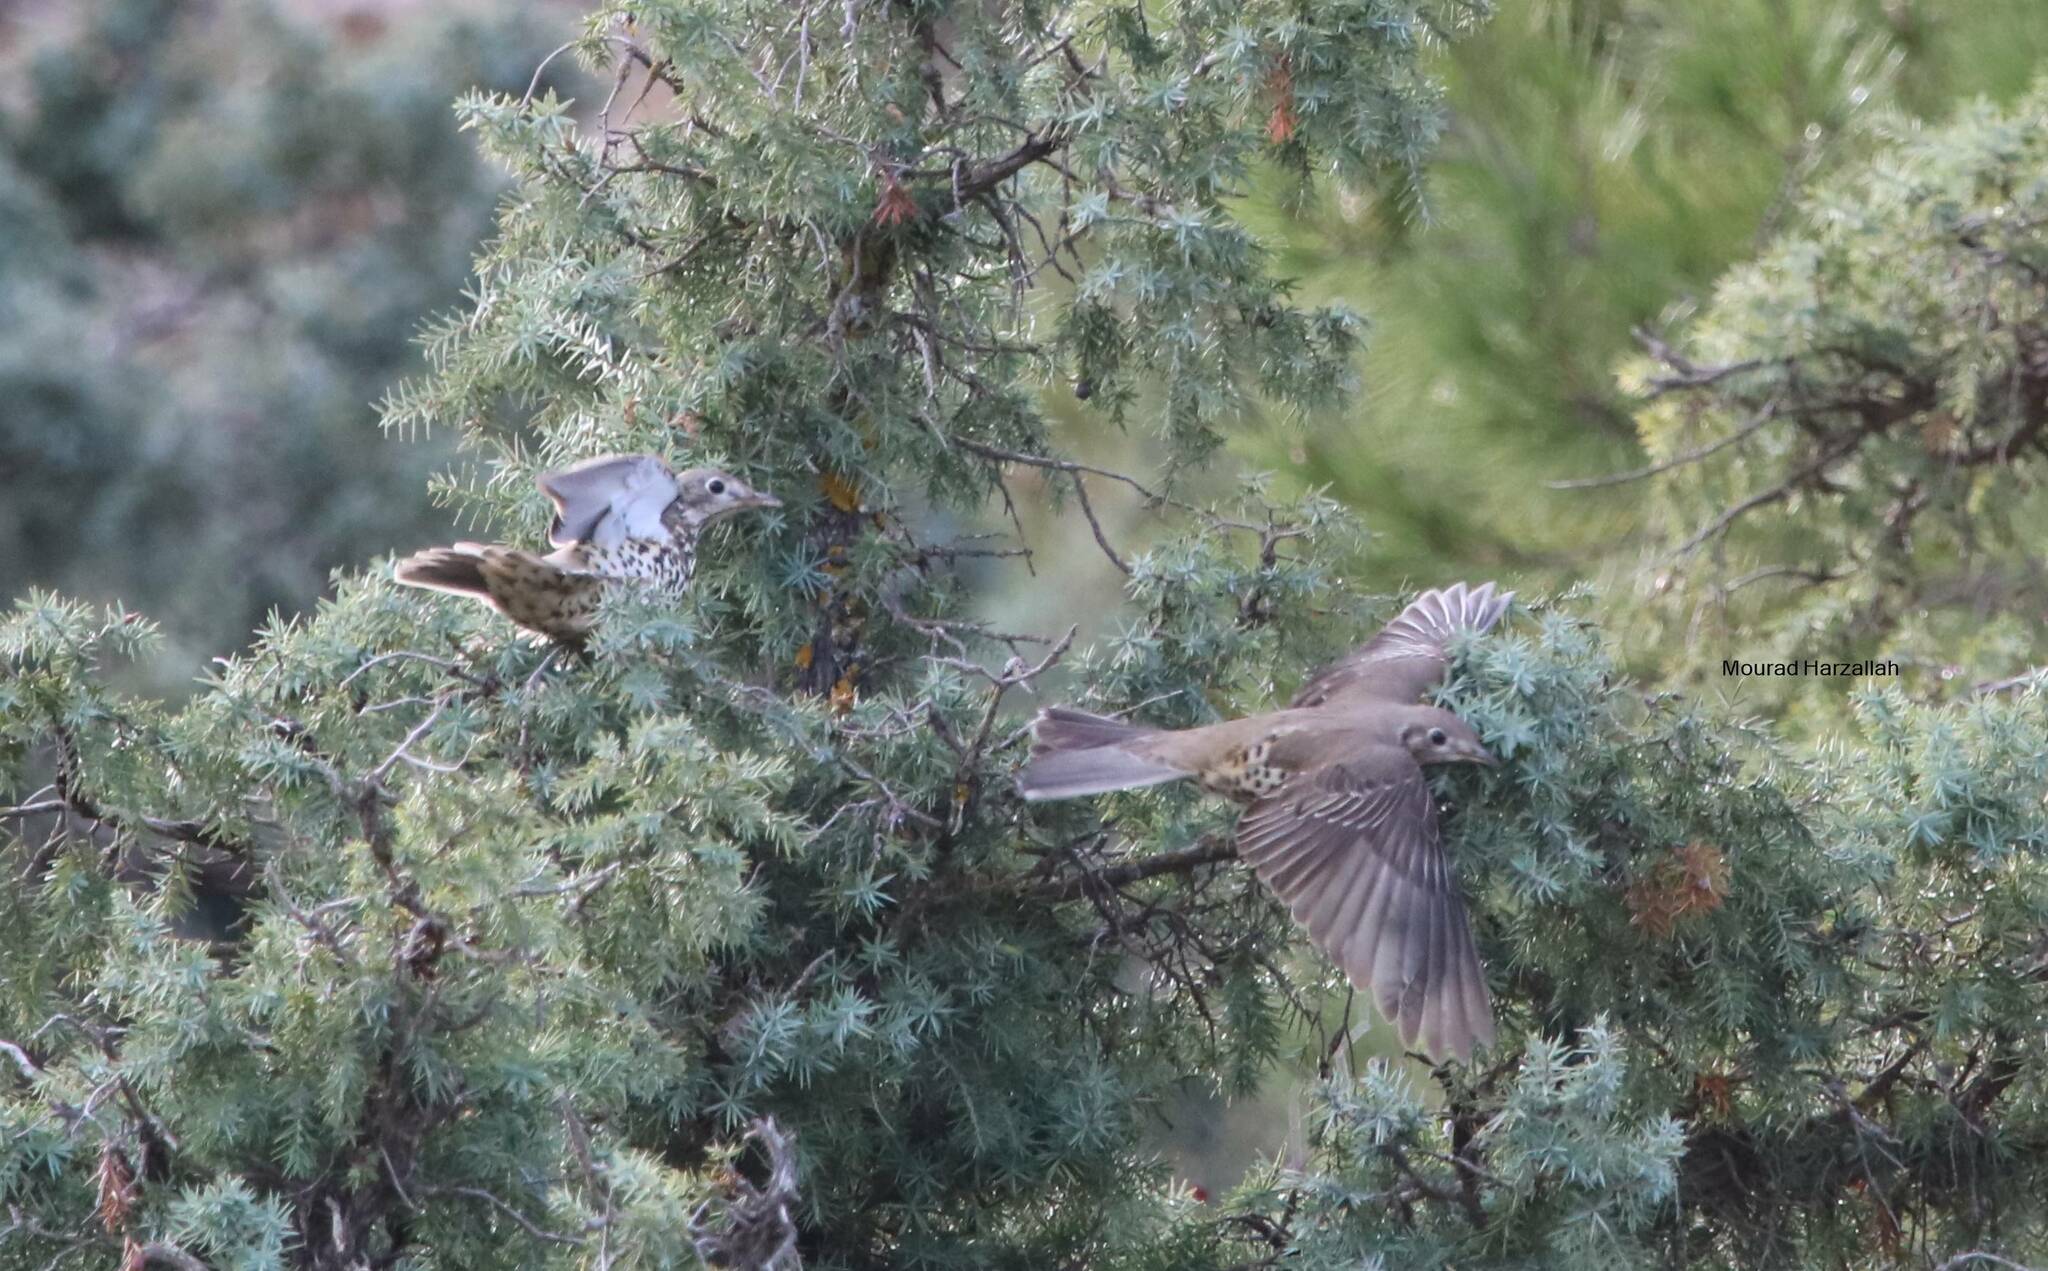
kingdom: Animalia
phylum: Chordata
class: Aves
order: Passeriformes
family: Turdidae
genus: Turdus
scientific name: Turdus viscivorus
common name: Mistle thrush
